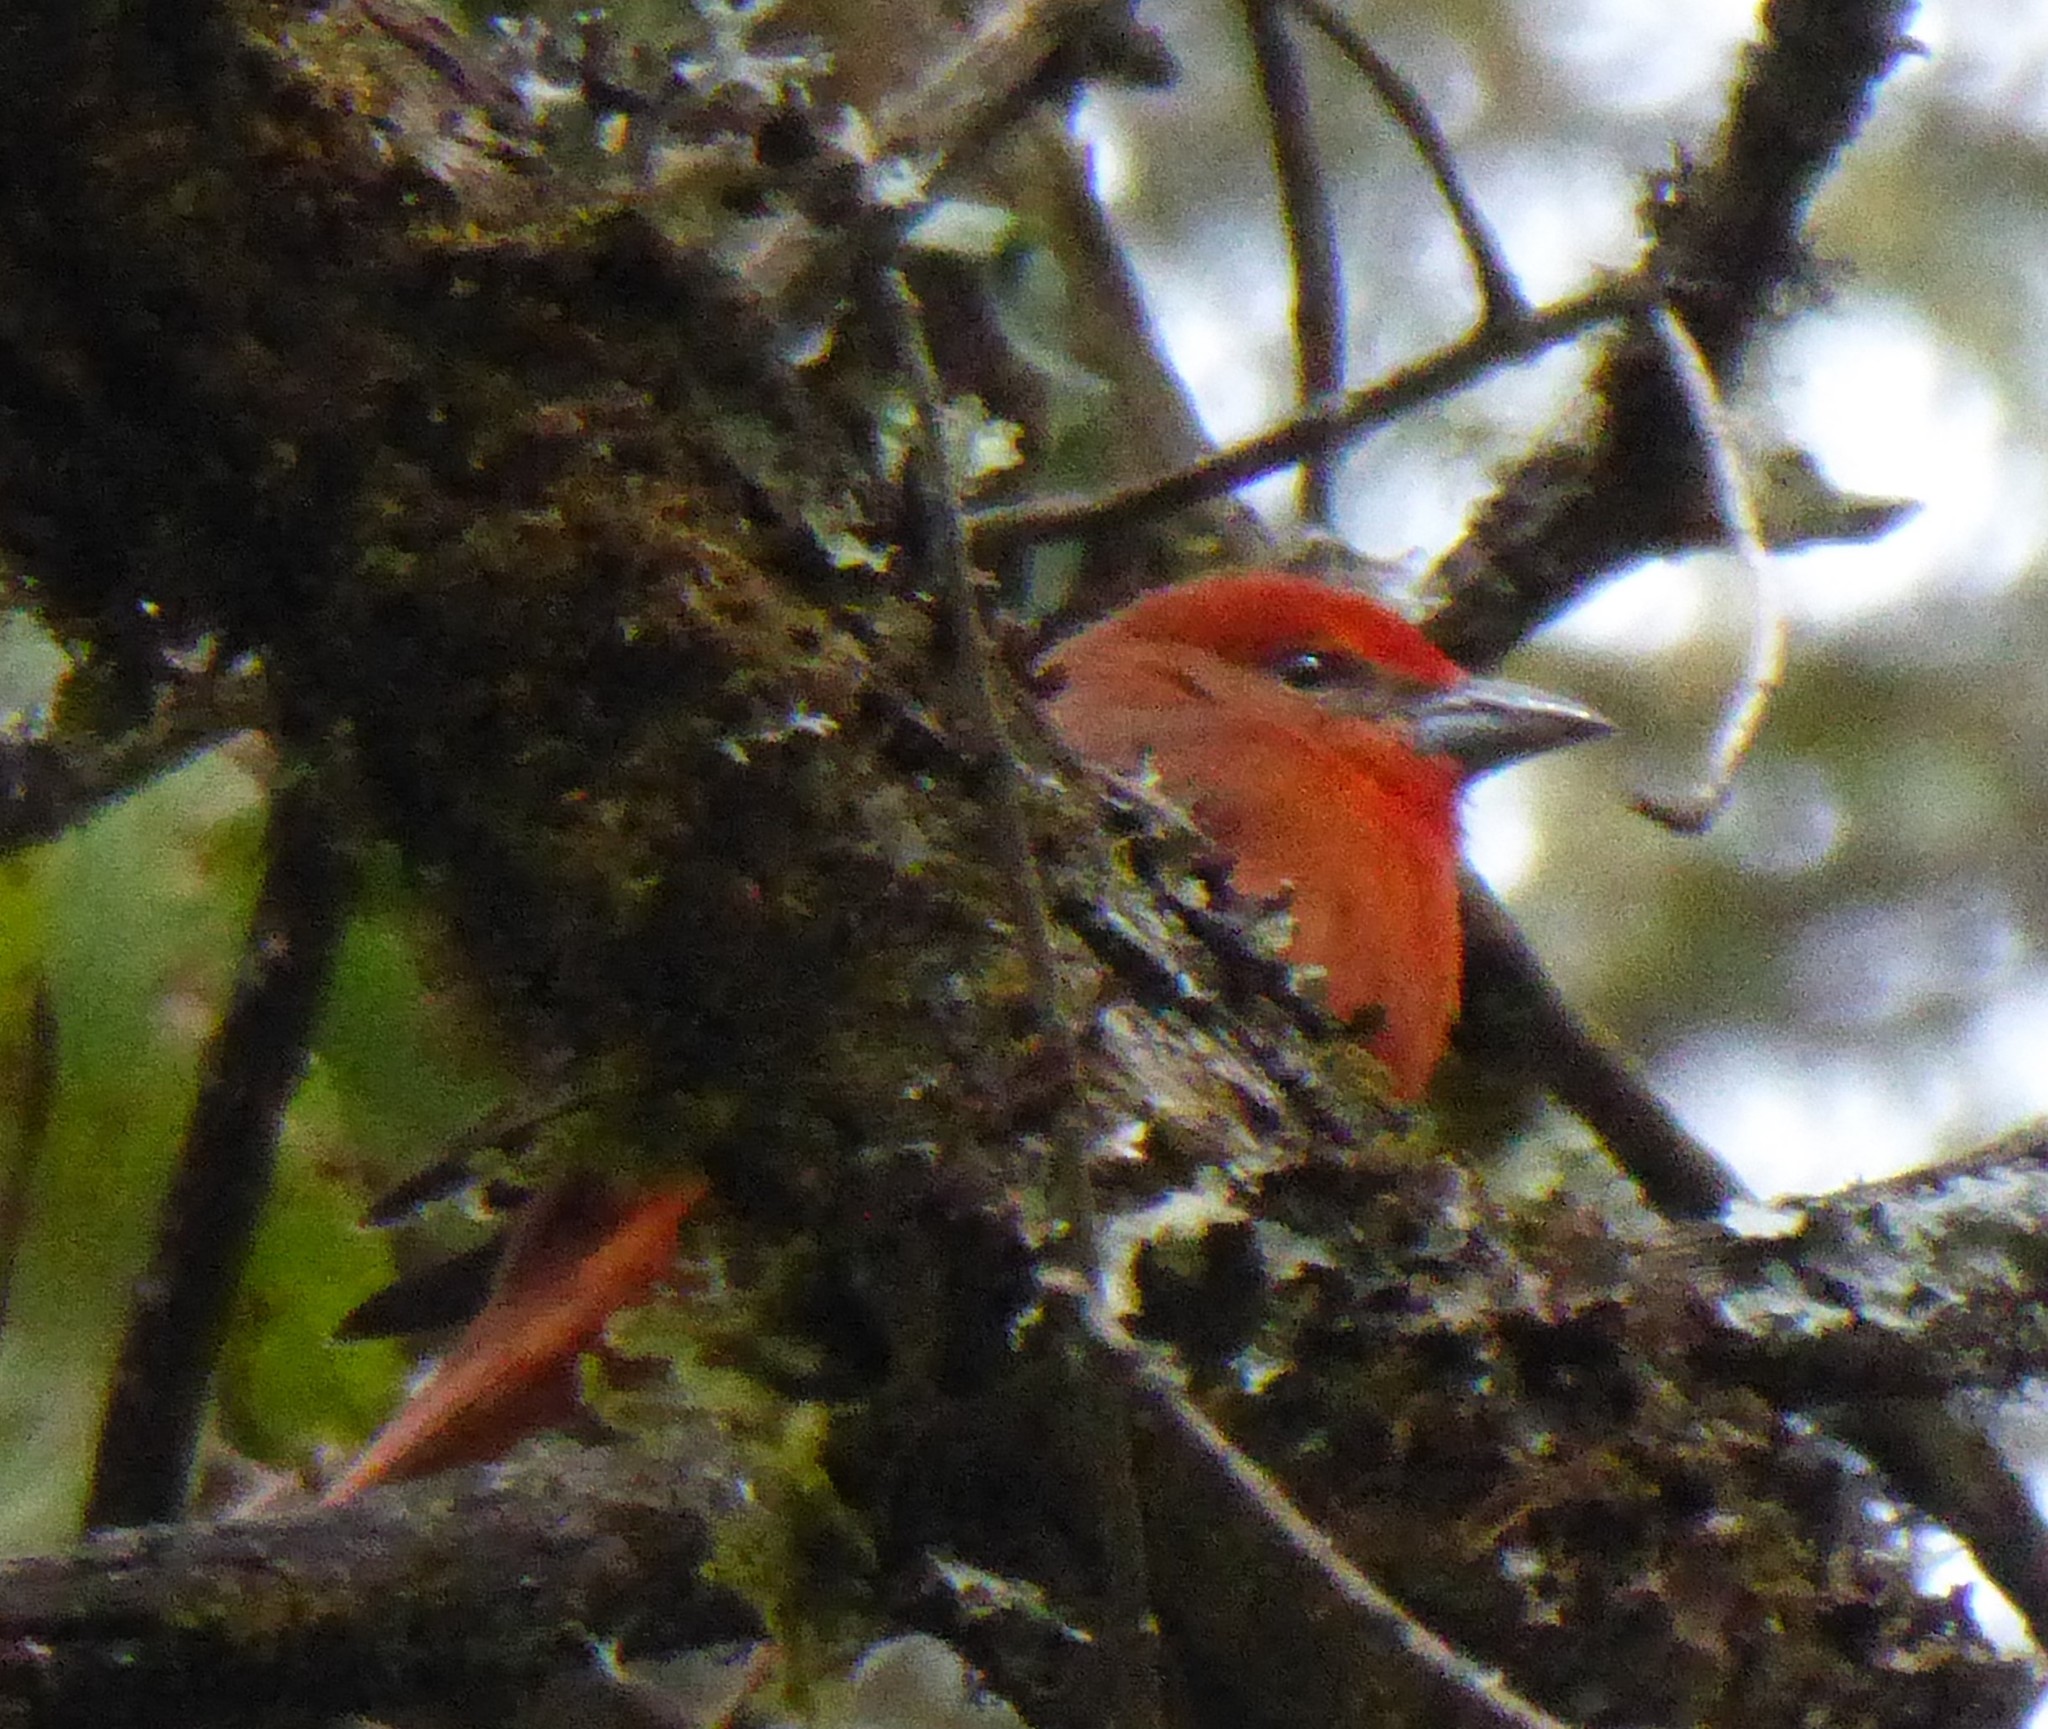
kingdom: Animalia
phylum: Chordata
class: Aves
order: Passeriformes
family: Cardinalidae
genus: Piranga
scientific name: Piranga flava
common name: Red tanager
